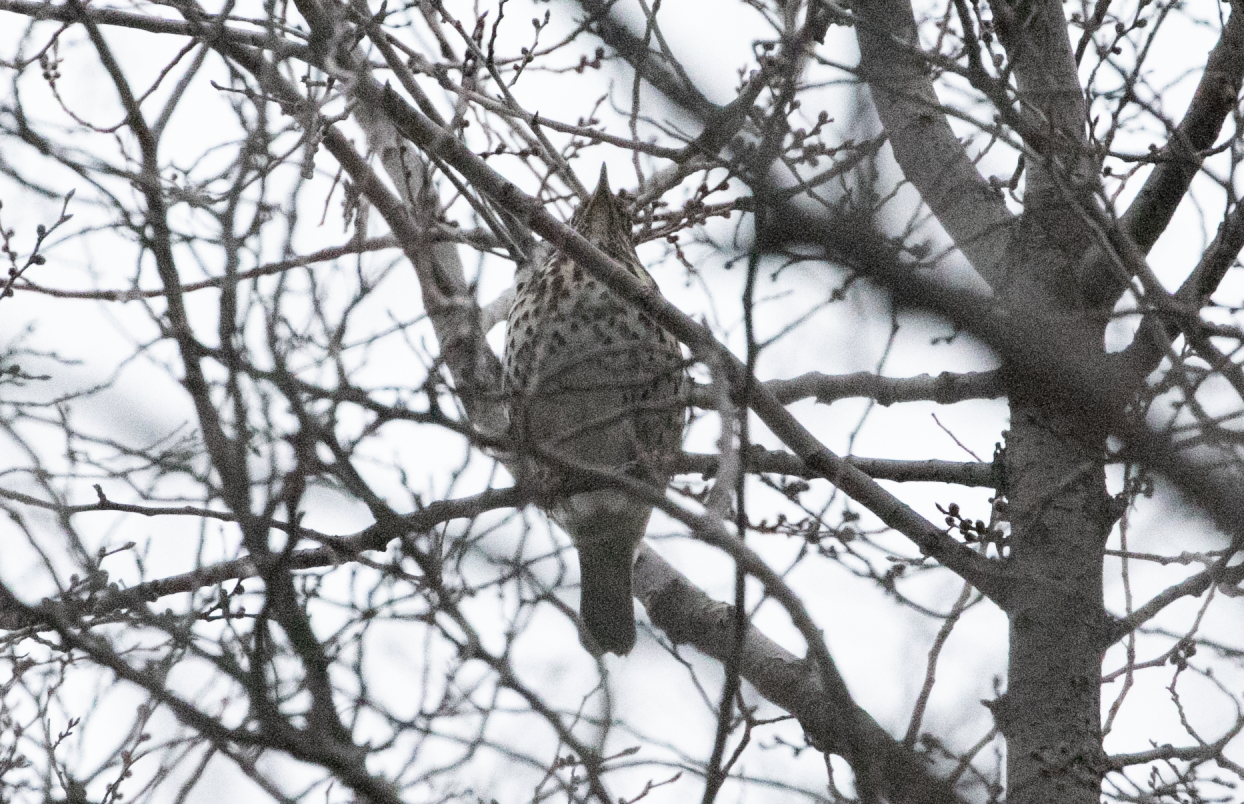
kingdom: Animalia
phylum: Chordata
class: Aves
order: Passeriformes
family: Turdidae
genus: Turdus
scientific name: Turdus philomelos
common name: Song thrush
